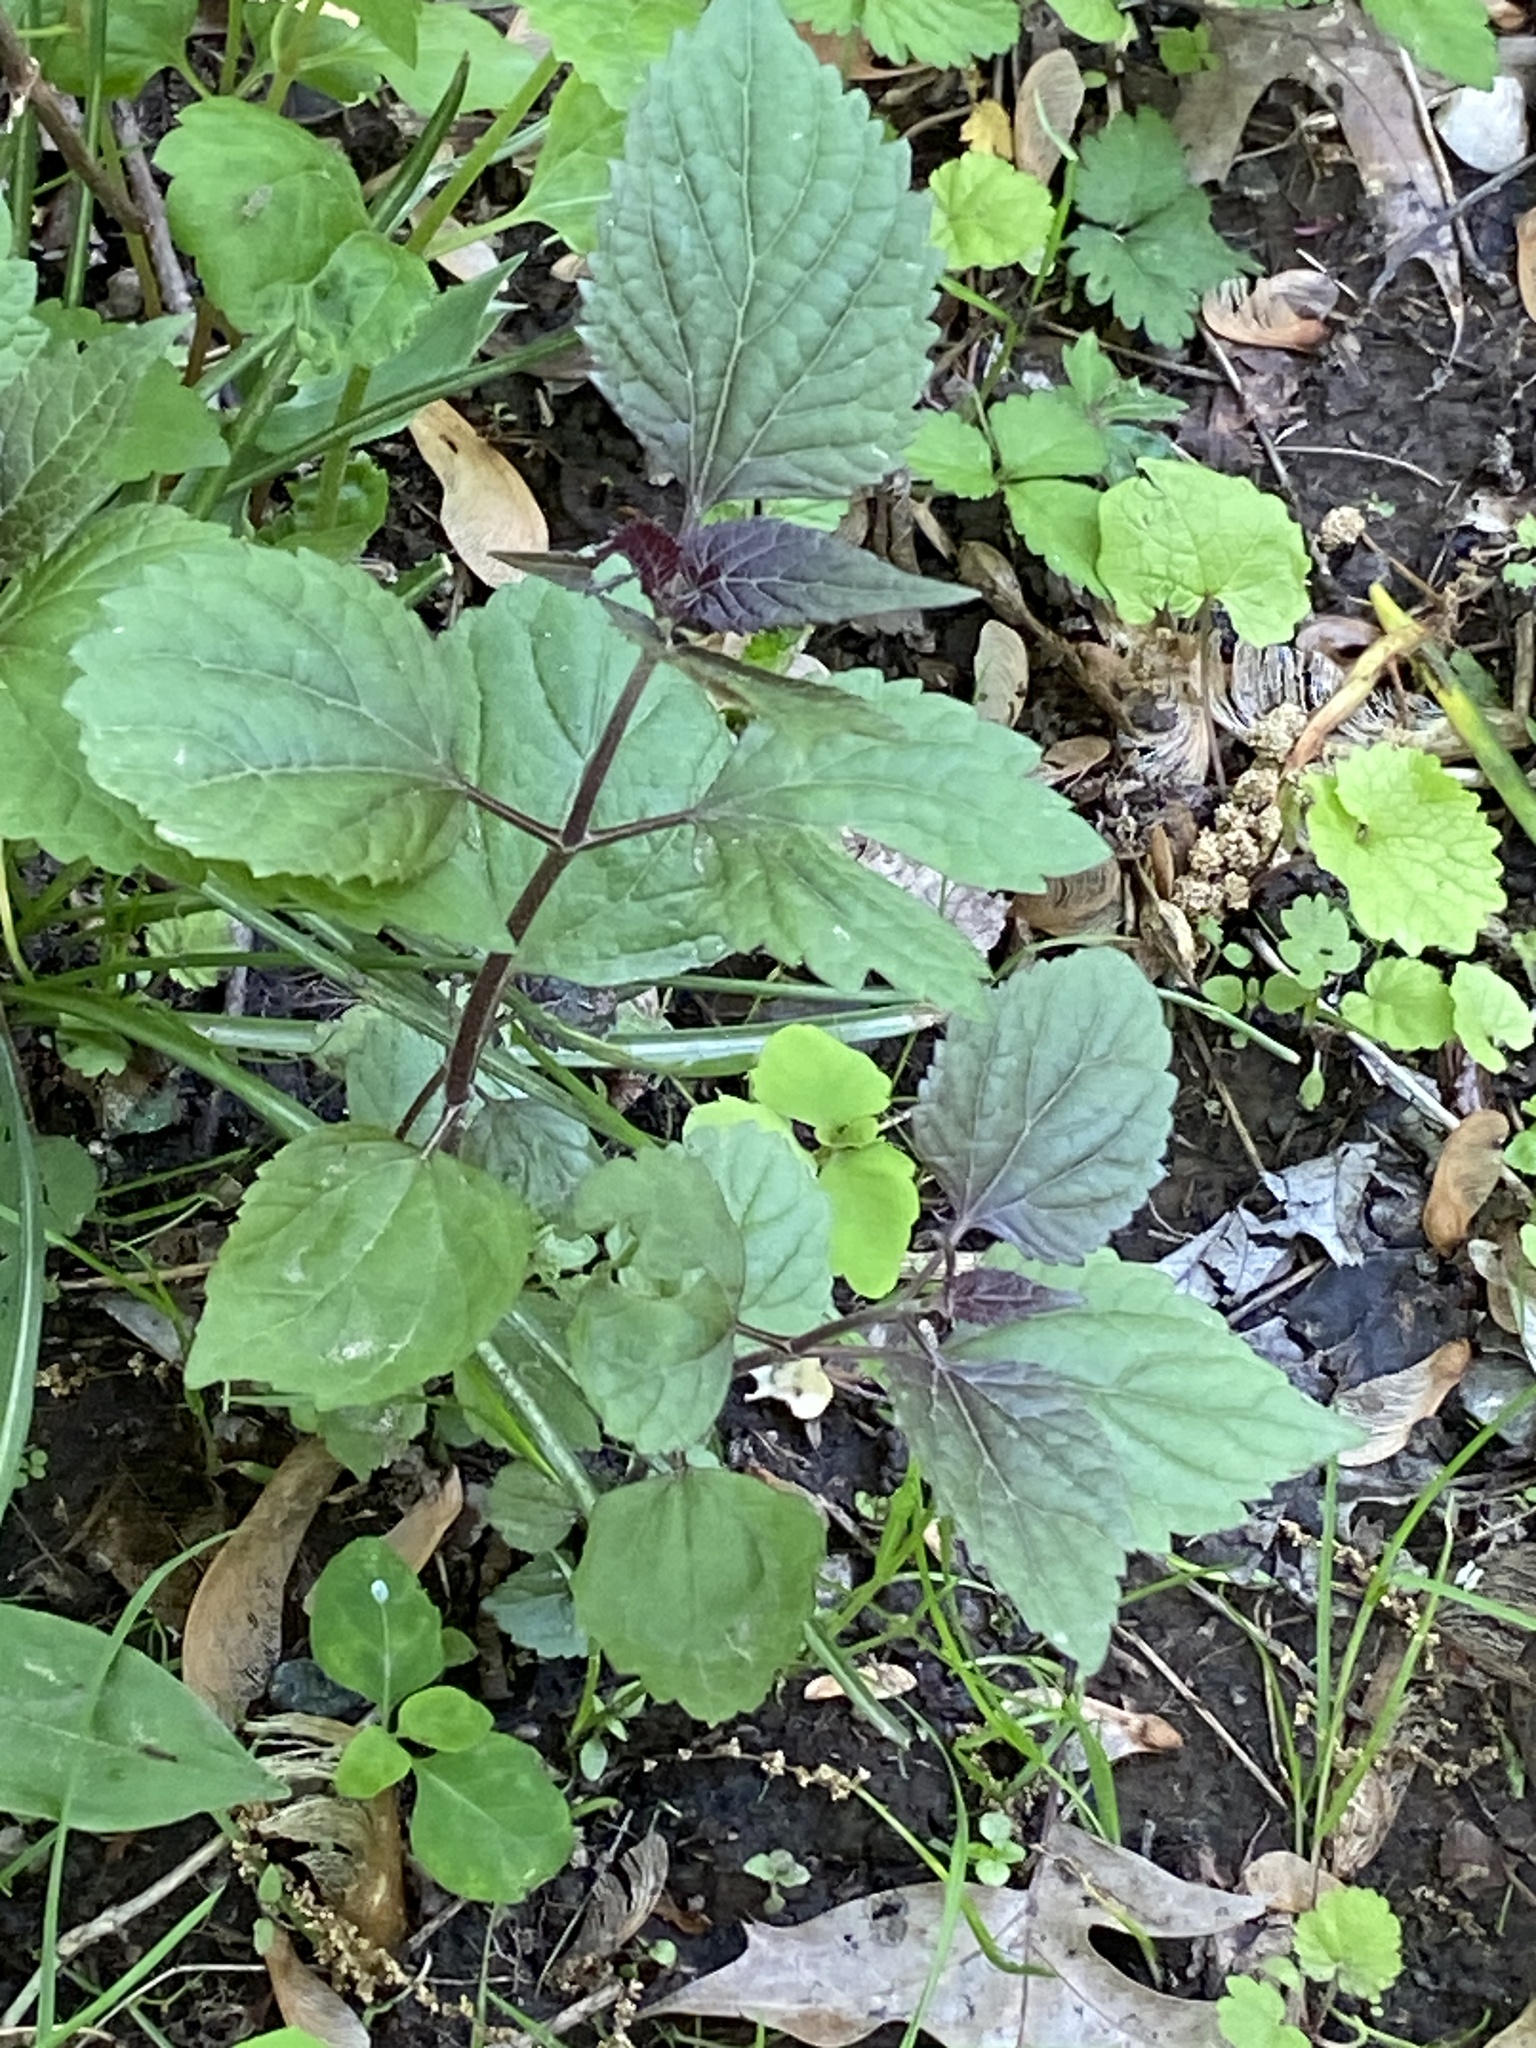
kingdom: Plantae
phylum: Tracheophyta
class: Magnoliopsida
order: Lamiales
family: Lamiaceae
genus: Perilla
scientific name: Perilla frutescens
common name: Perilla
